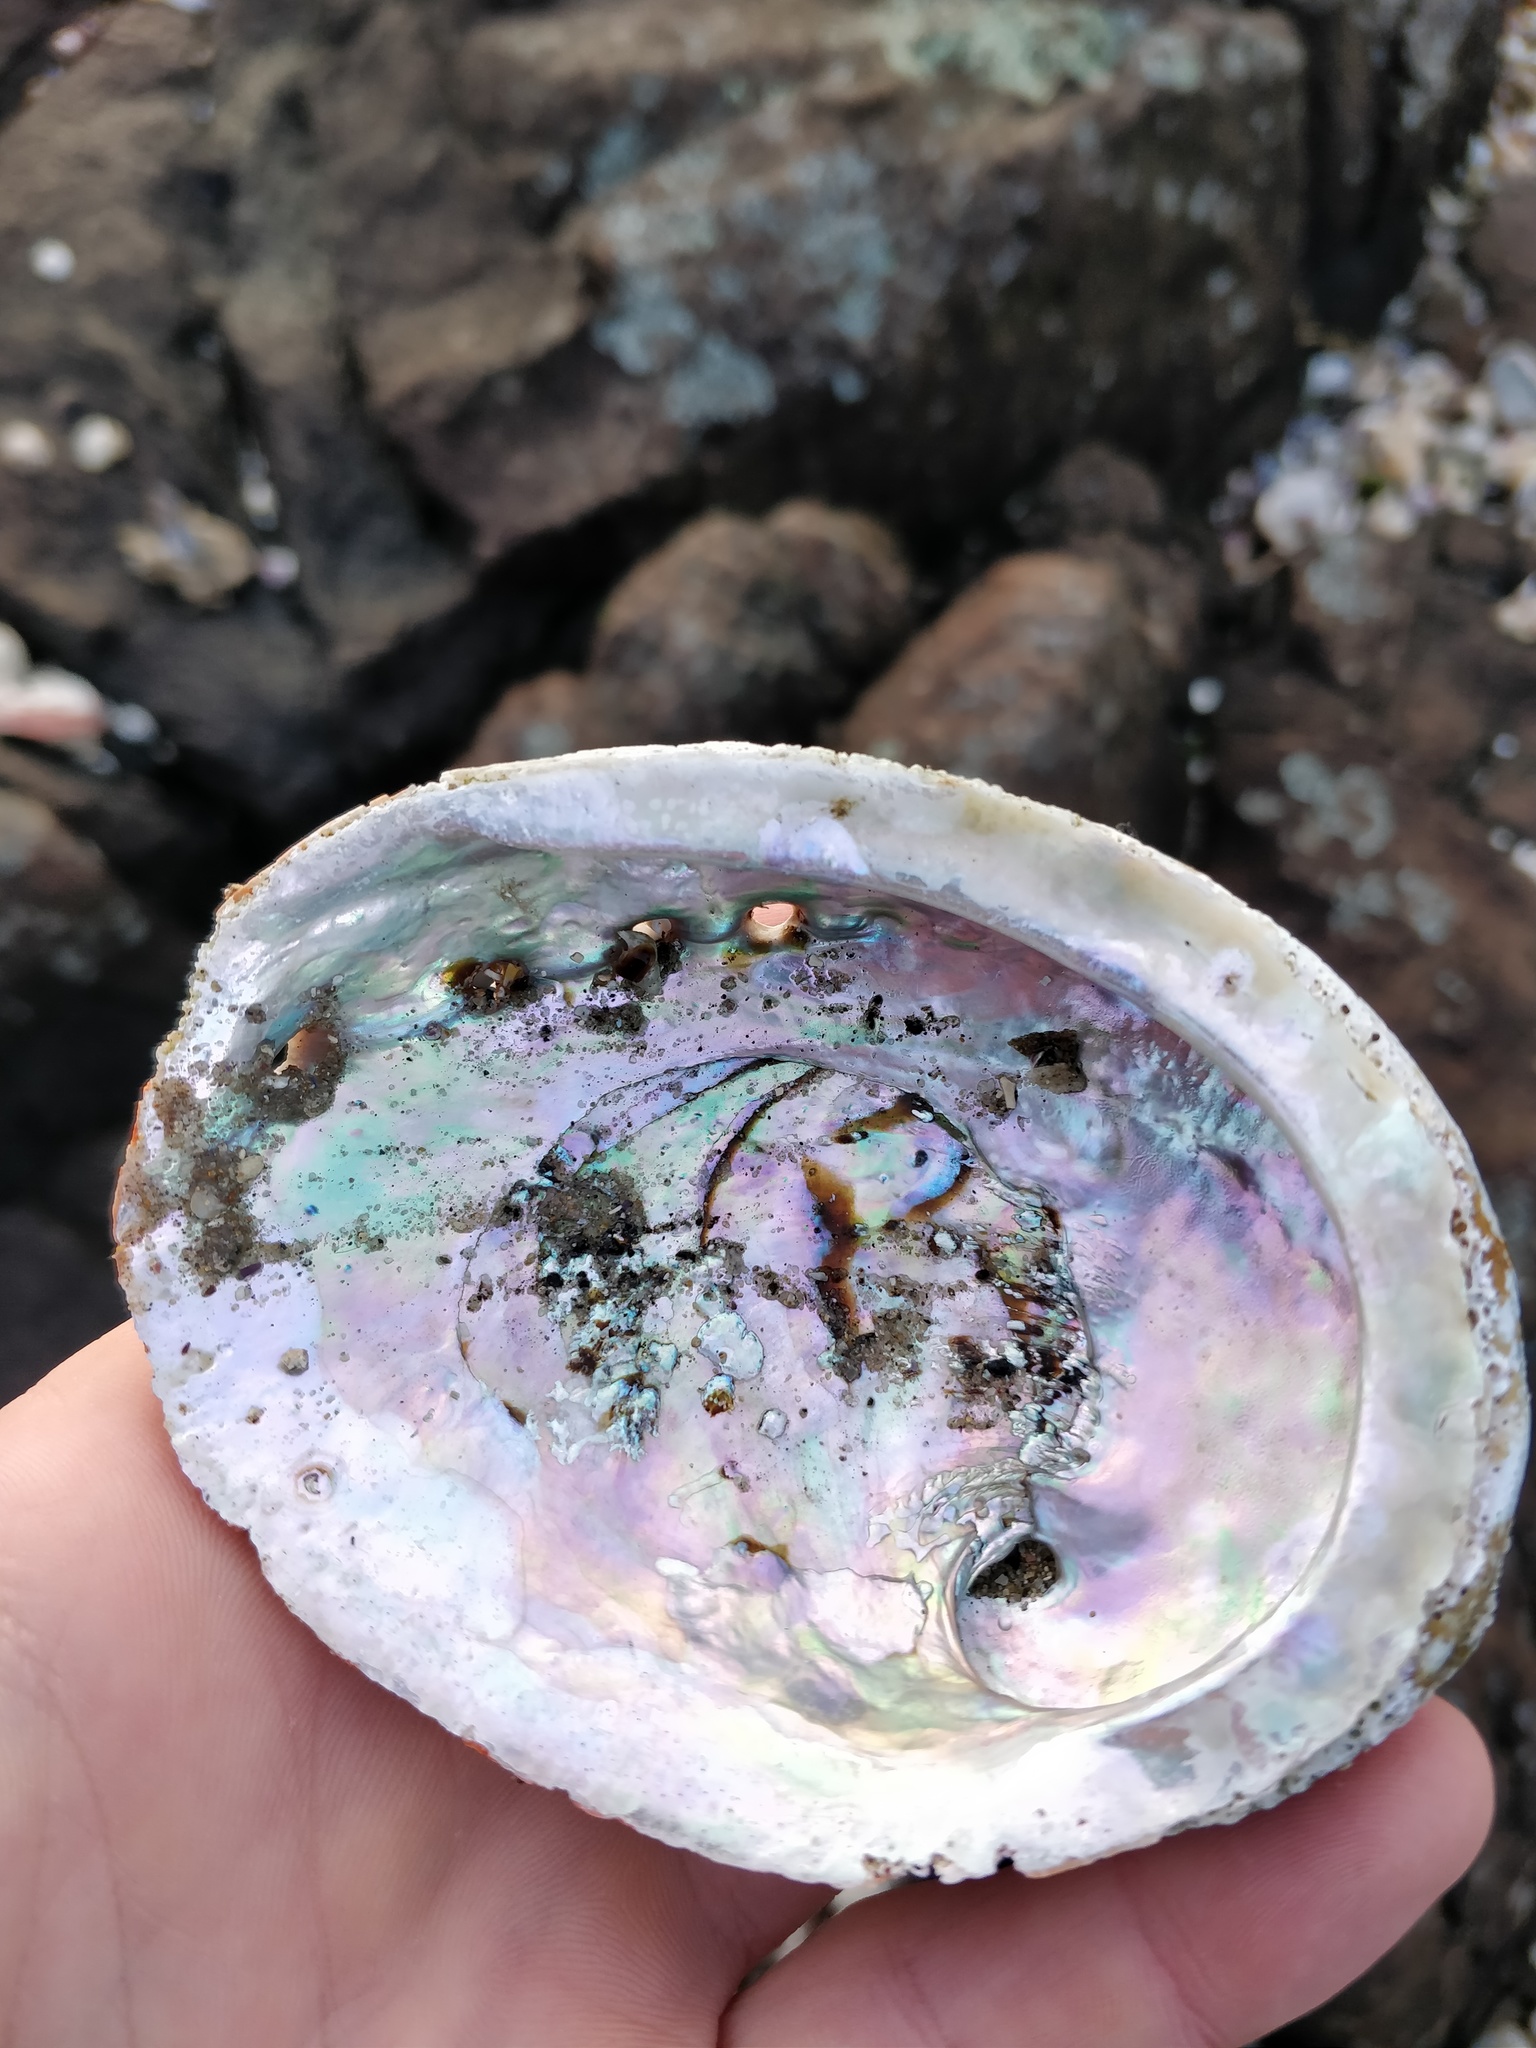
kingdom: Animalia
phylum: Mollusca
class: Gastropoda
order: Lepetellida
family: Haliotidae
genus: Haliotis
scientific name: Haliotis rubra
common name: Blacklip abalone
